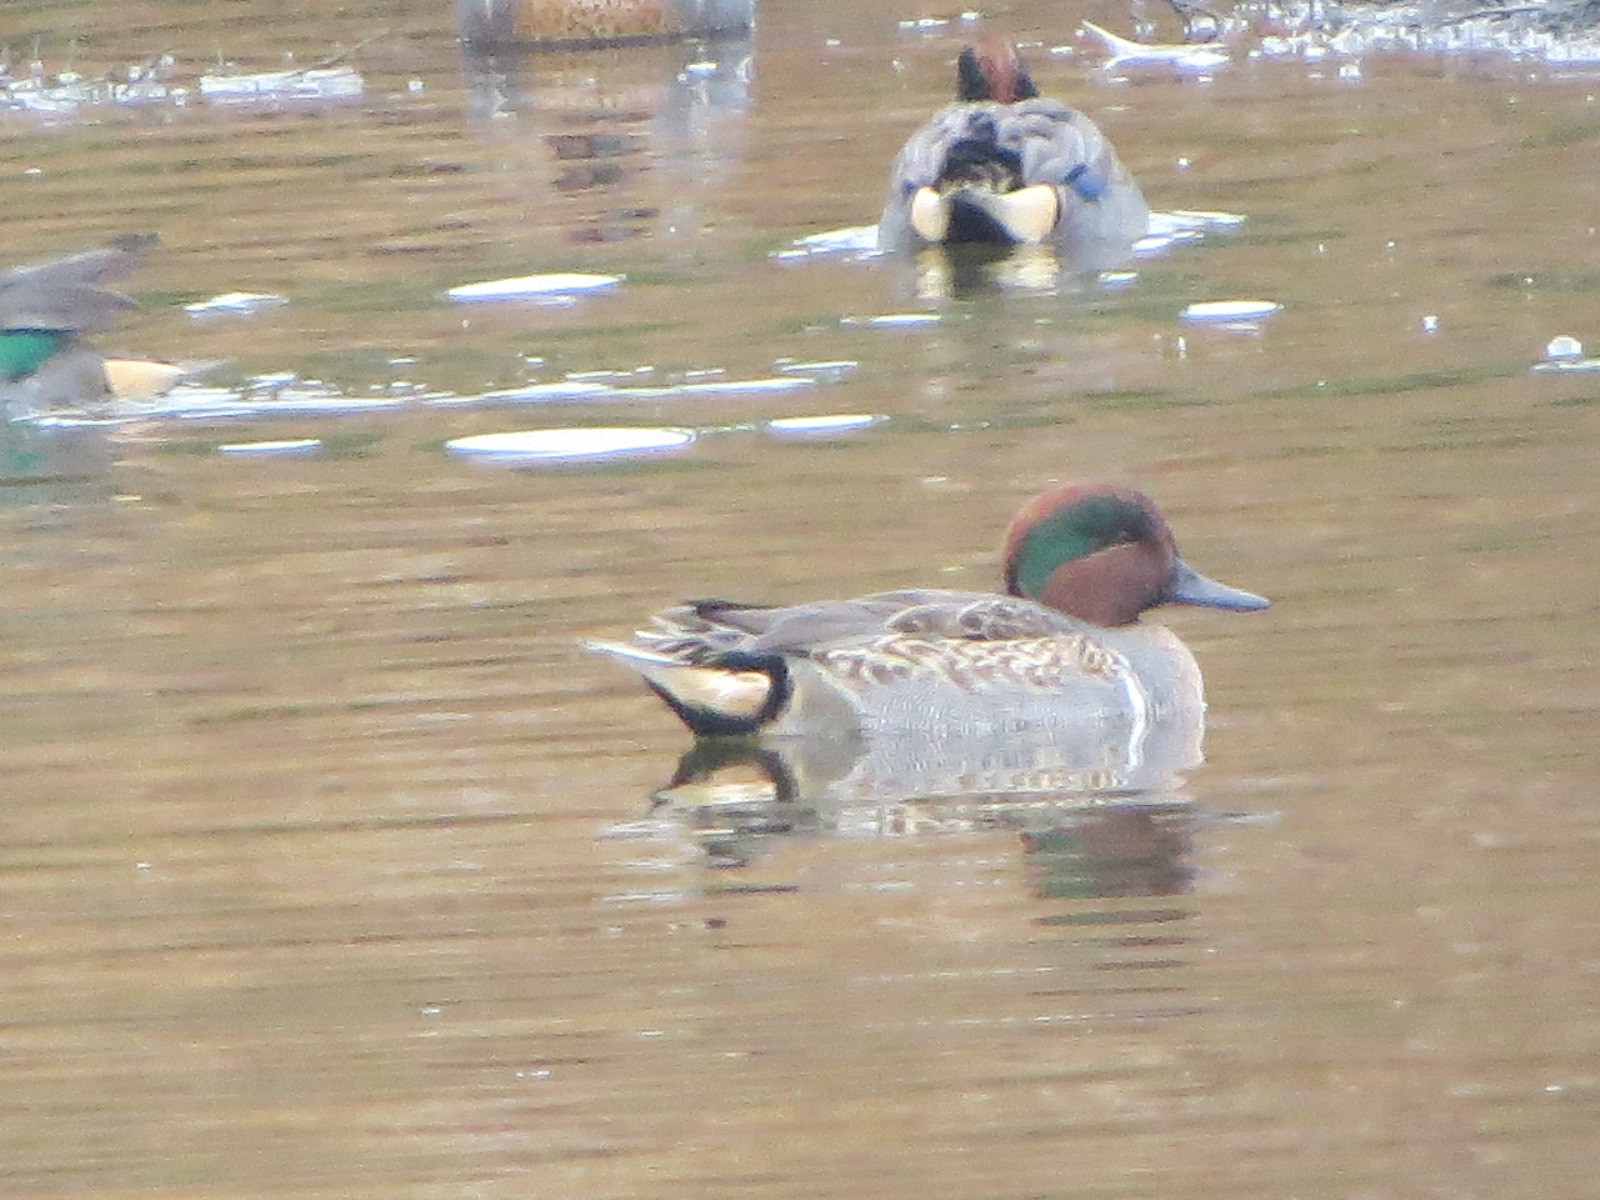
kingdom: Animalia
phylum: Chordata
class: Aves
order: Anseriformes
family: Anatidae
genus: Anas
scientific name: Anas crecca
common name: Eurasian teal
